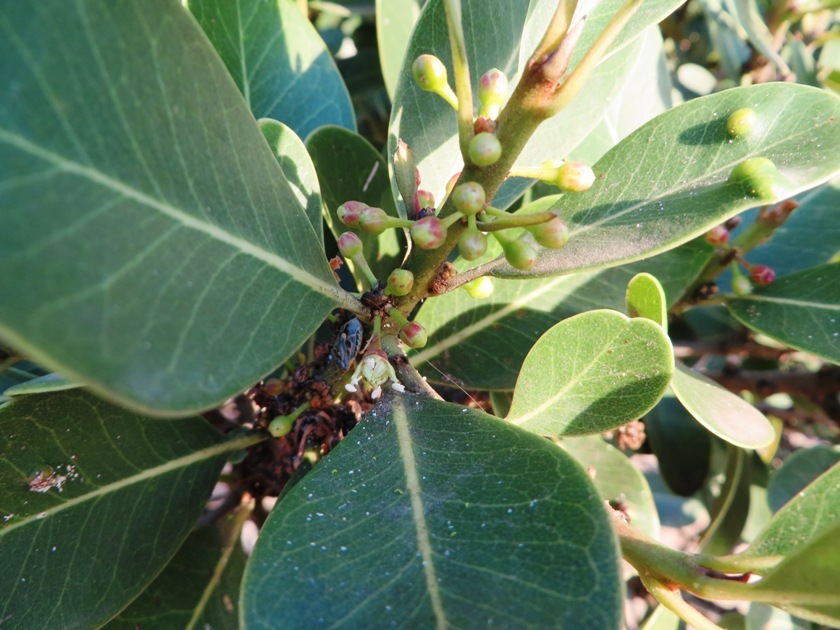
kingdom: Plantae
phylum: Tracheophyta
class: Magnoliopsida
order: Ericales
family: Sapotaceae
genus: Sideroxylon
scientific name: Sideroxylon inerme
